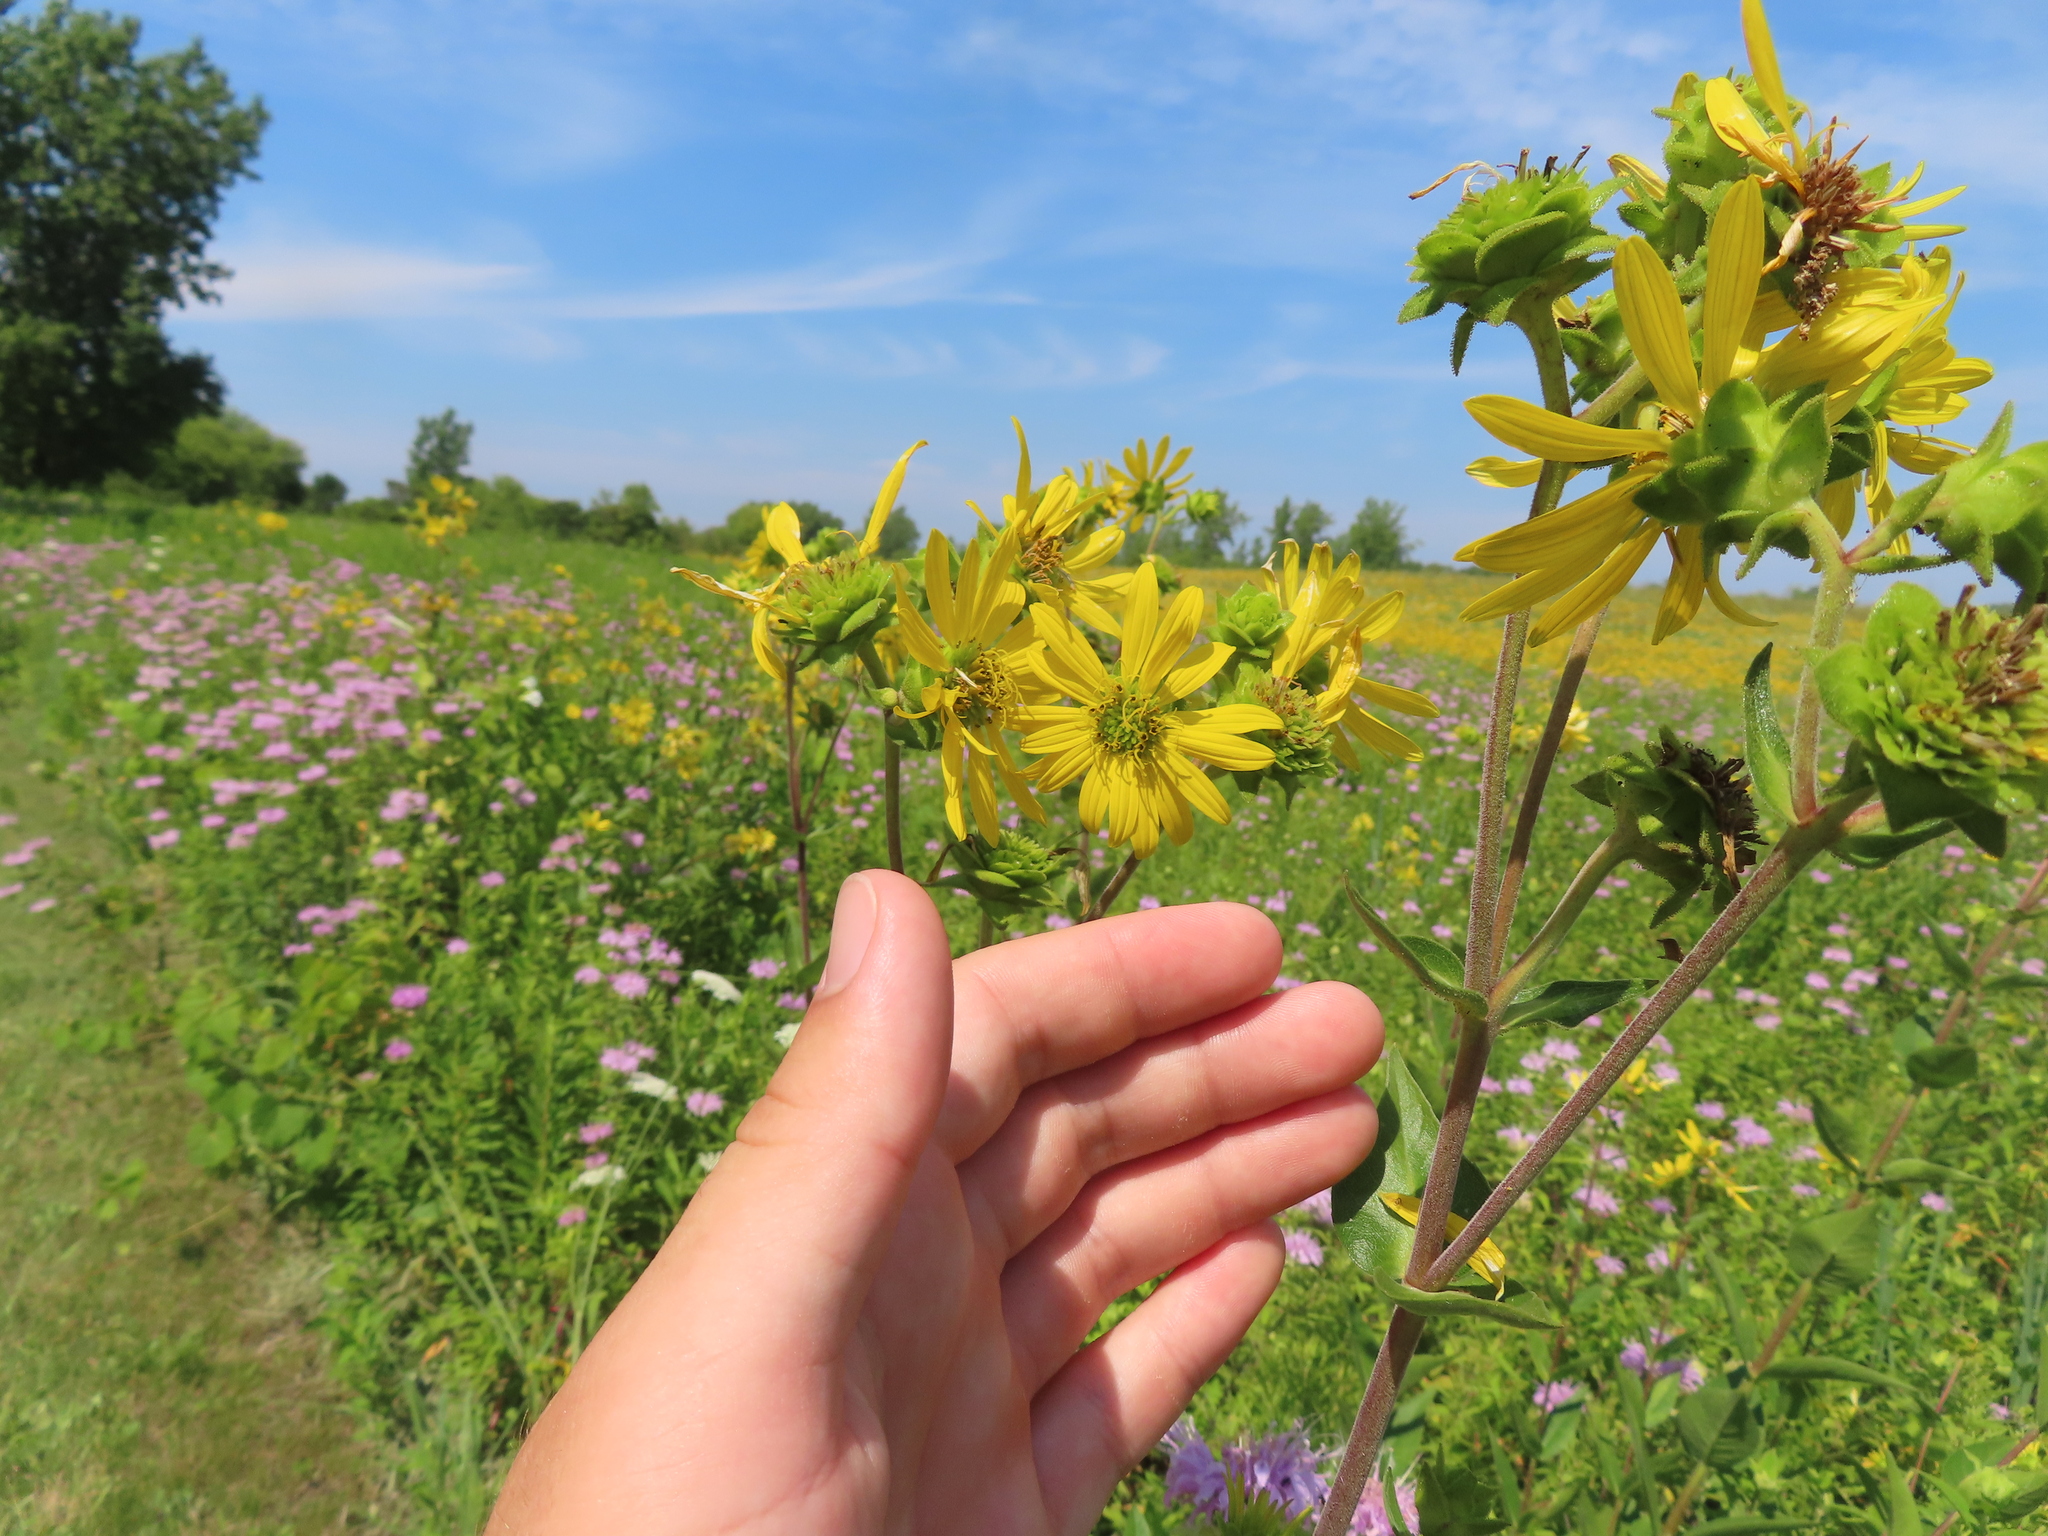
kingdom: Plantae
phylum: Tracheophyta
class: Magnoliopsida
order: Asterales
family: Asteraceae
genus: Silphium
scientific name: Silphium integrifolium
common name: Whole-leaf rosinweed
